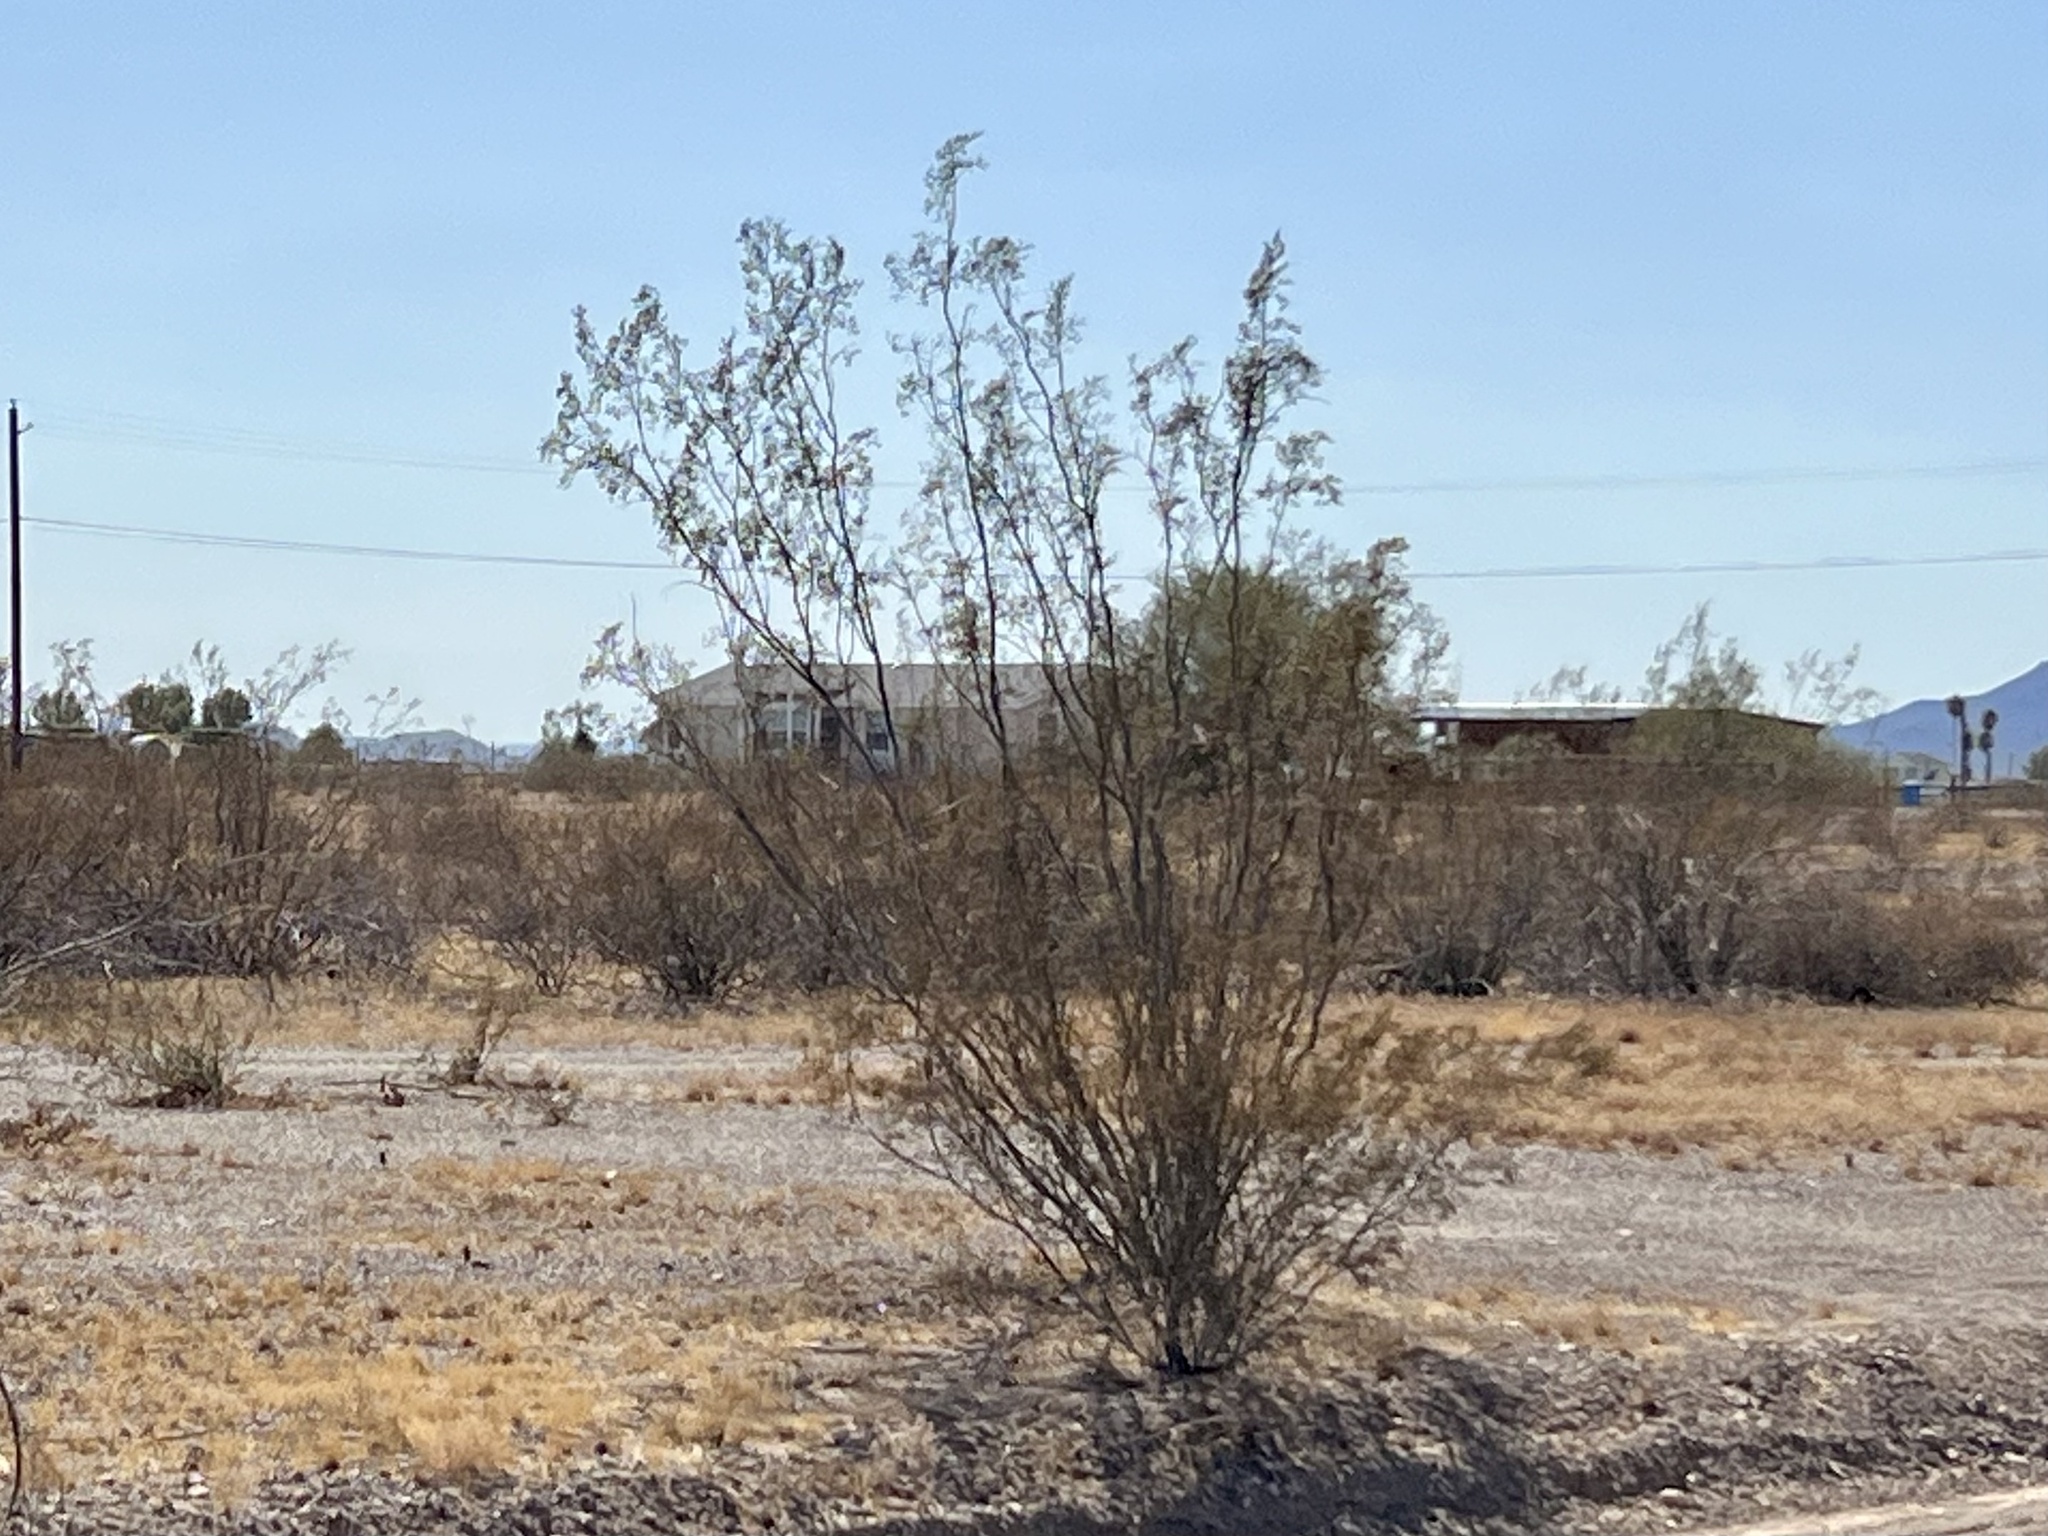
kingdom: Plantae
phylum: Tracheophyta
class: Magnoliopsida
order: Zygophyllales
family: Zygophyllaceae
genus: Larrea
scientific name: Larrea tridentata
